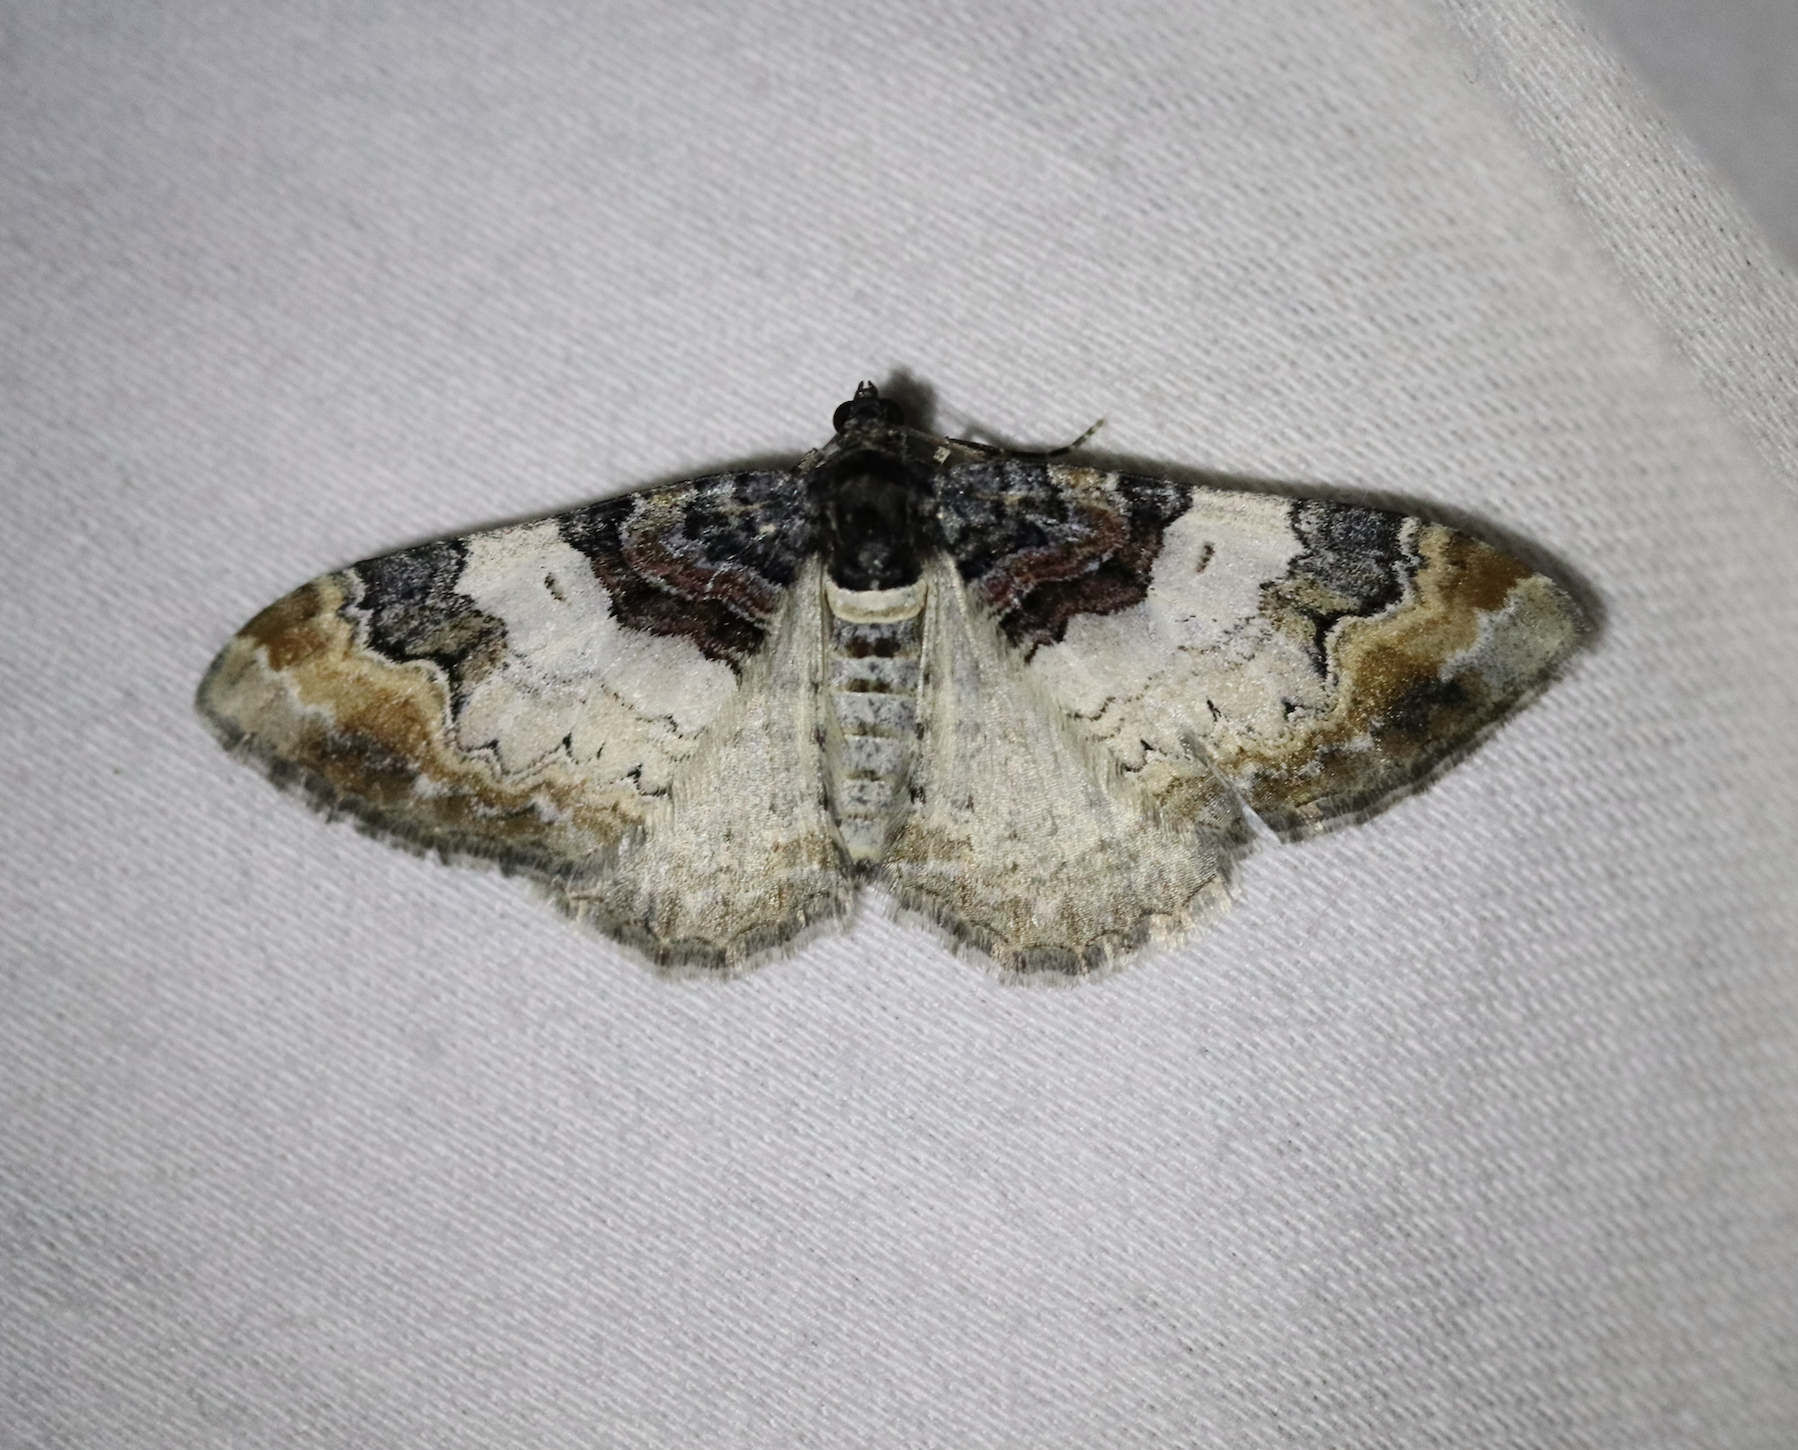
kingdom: Animalia
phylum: Arthropoda
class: Insecta
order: Lepidoptera
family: Geometridae
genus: Catarhoe
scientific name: Catarhoe cuculata
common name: Royal mantle
